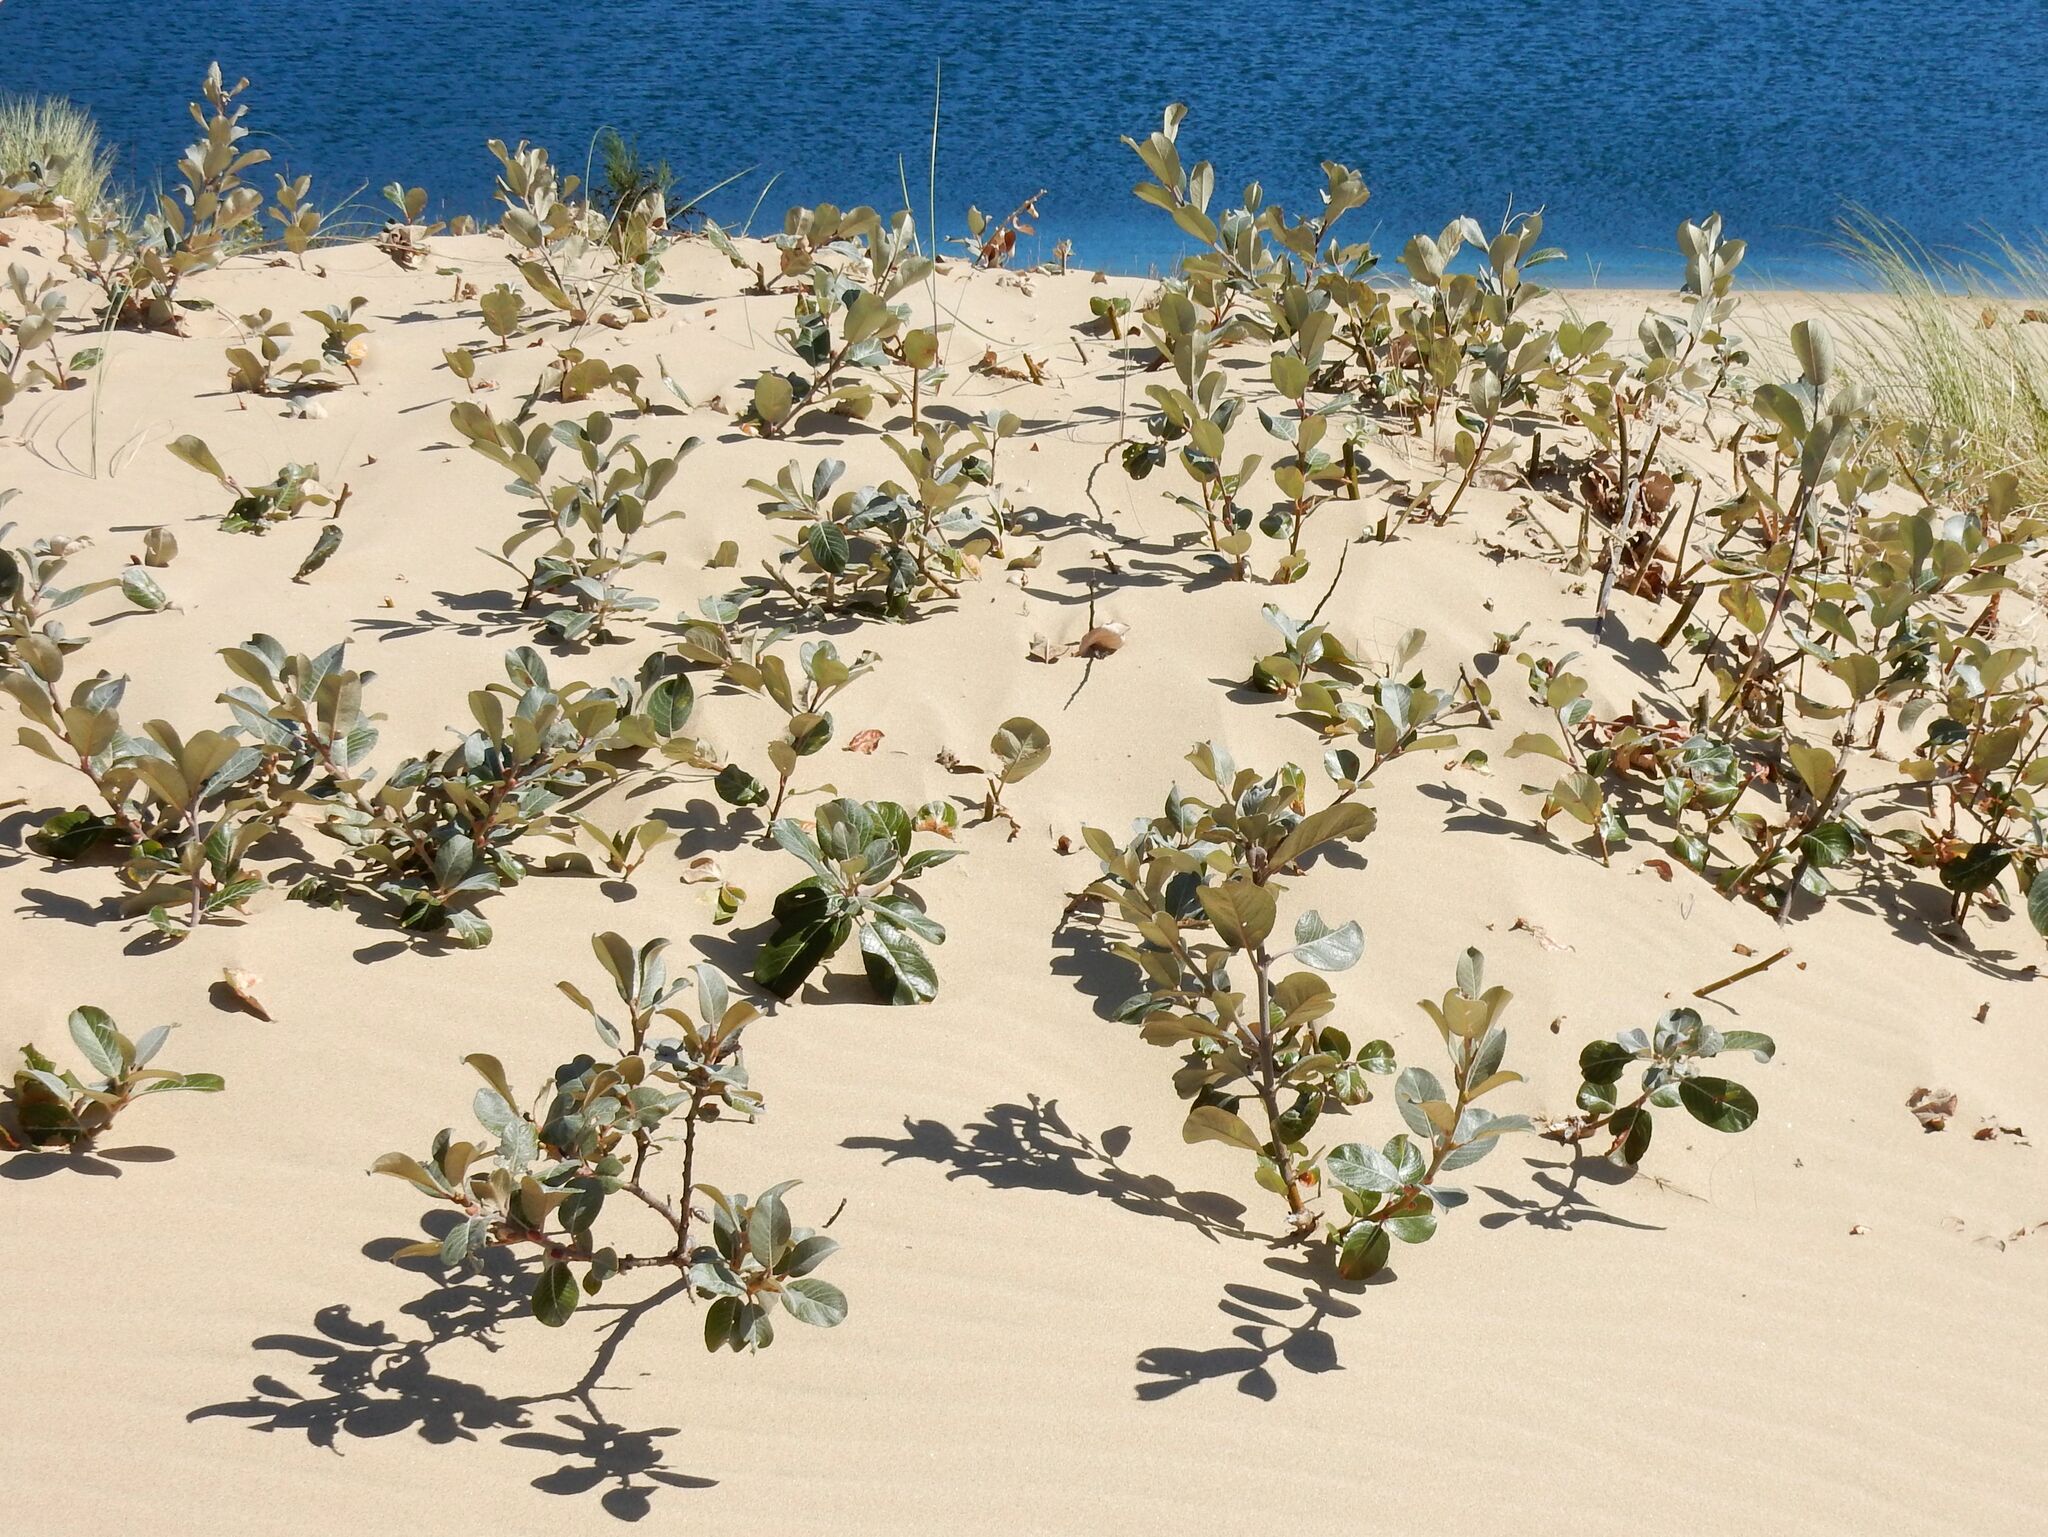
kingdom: Plantae
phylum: Tracheophyta
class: Magnoliopsida
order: Malpighiales
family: Salicaceae
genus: Salix
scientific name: Salix hookeriana
